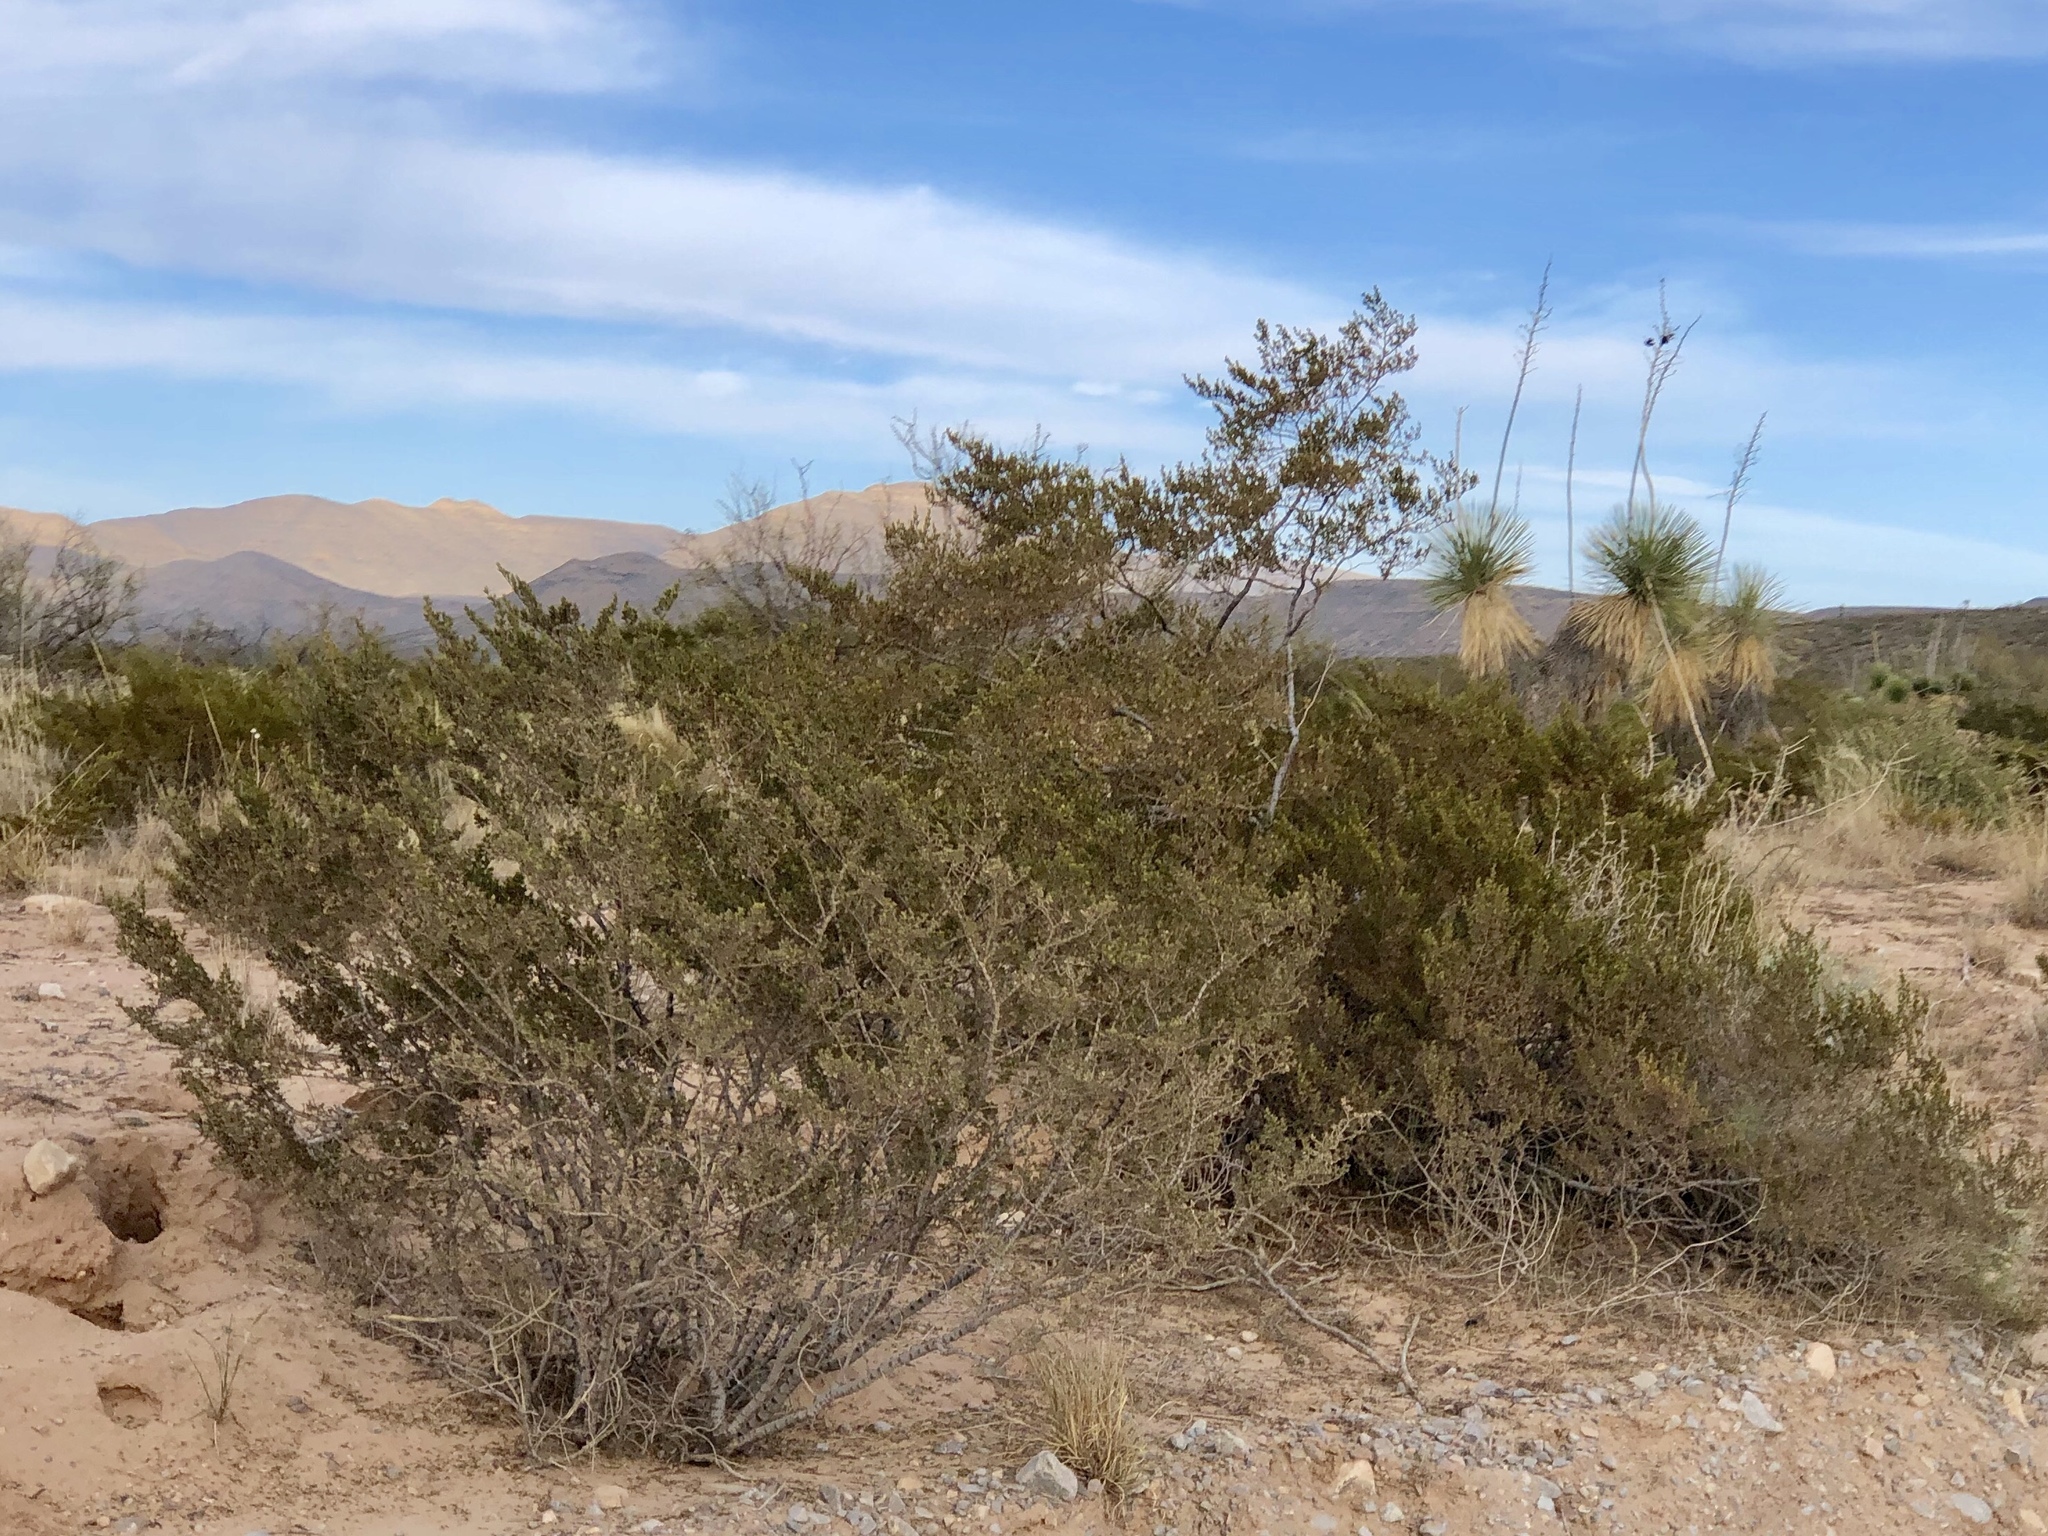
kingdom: Plantae
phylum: Tracheophyta
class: Magnoliopsida
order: Zygophyllales
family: Zygophyllaceae
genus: Larrea
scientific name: Larrea tridentata
